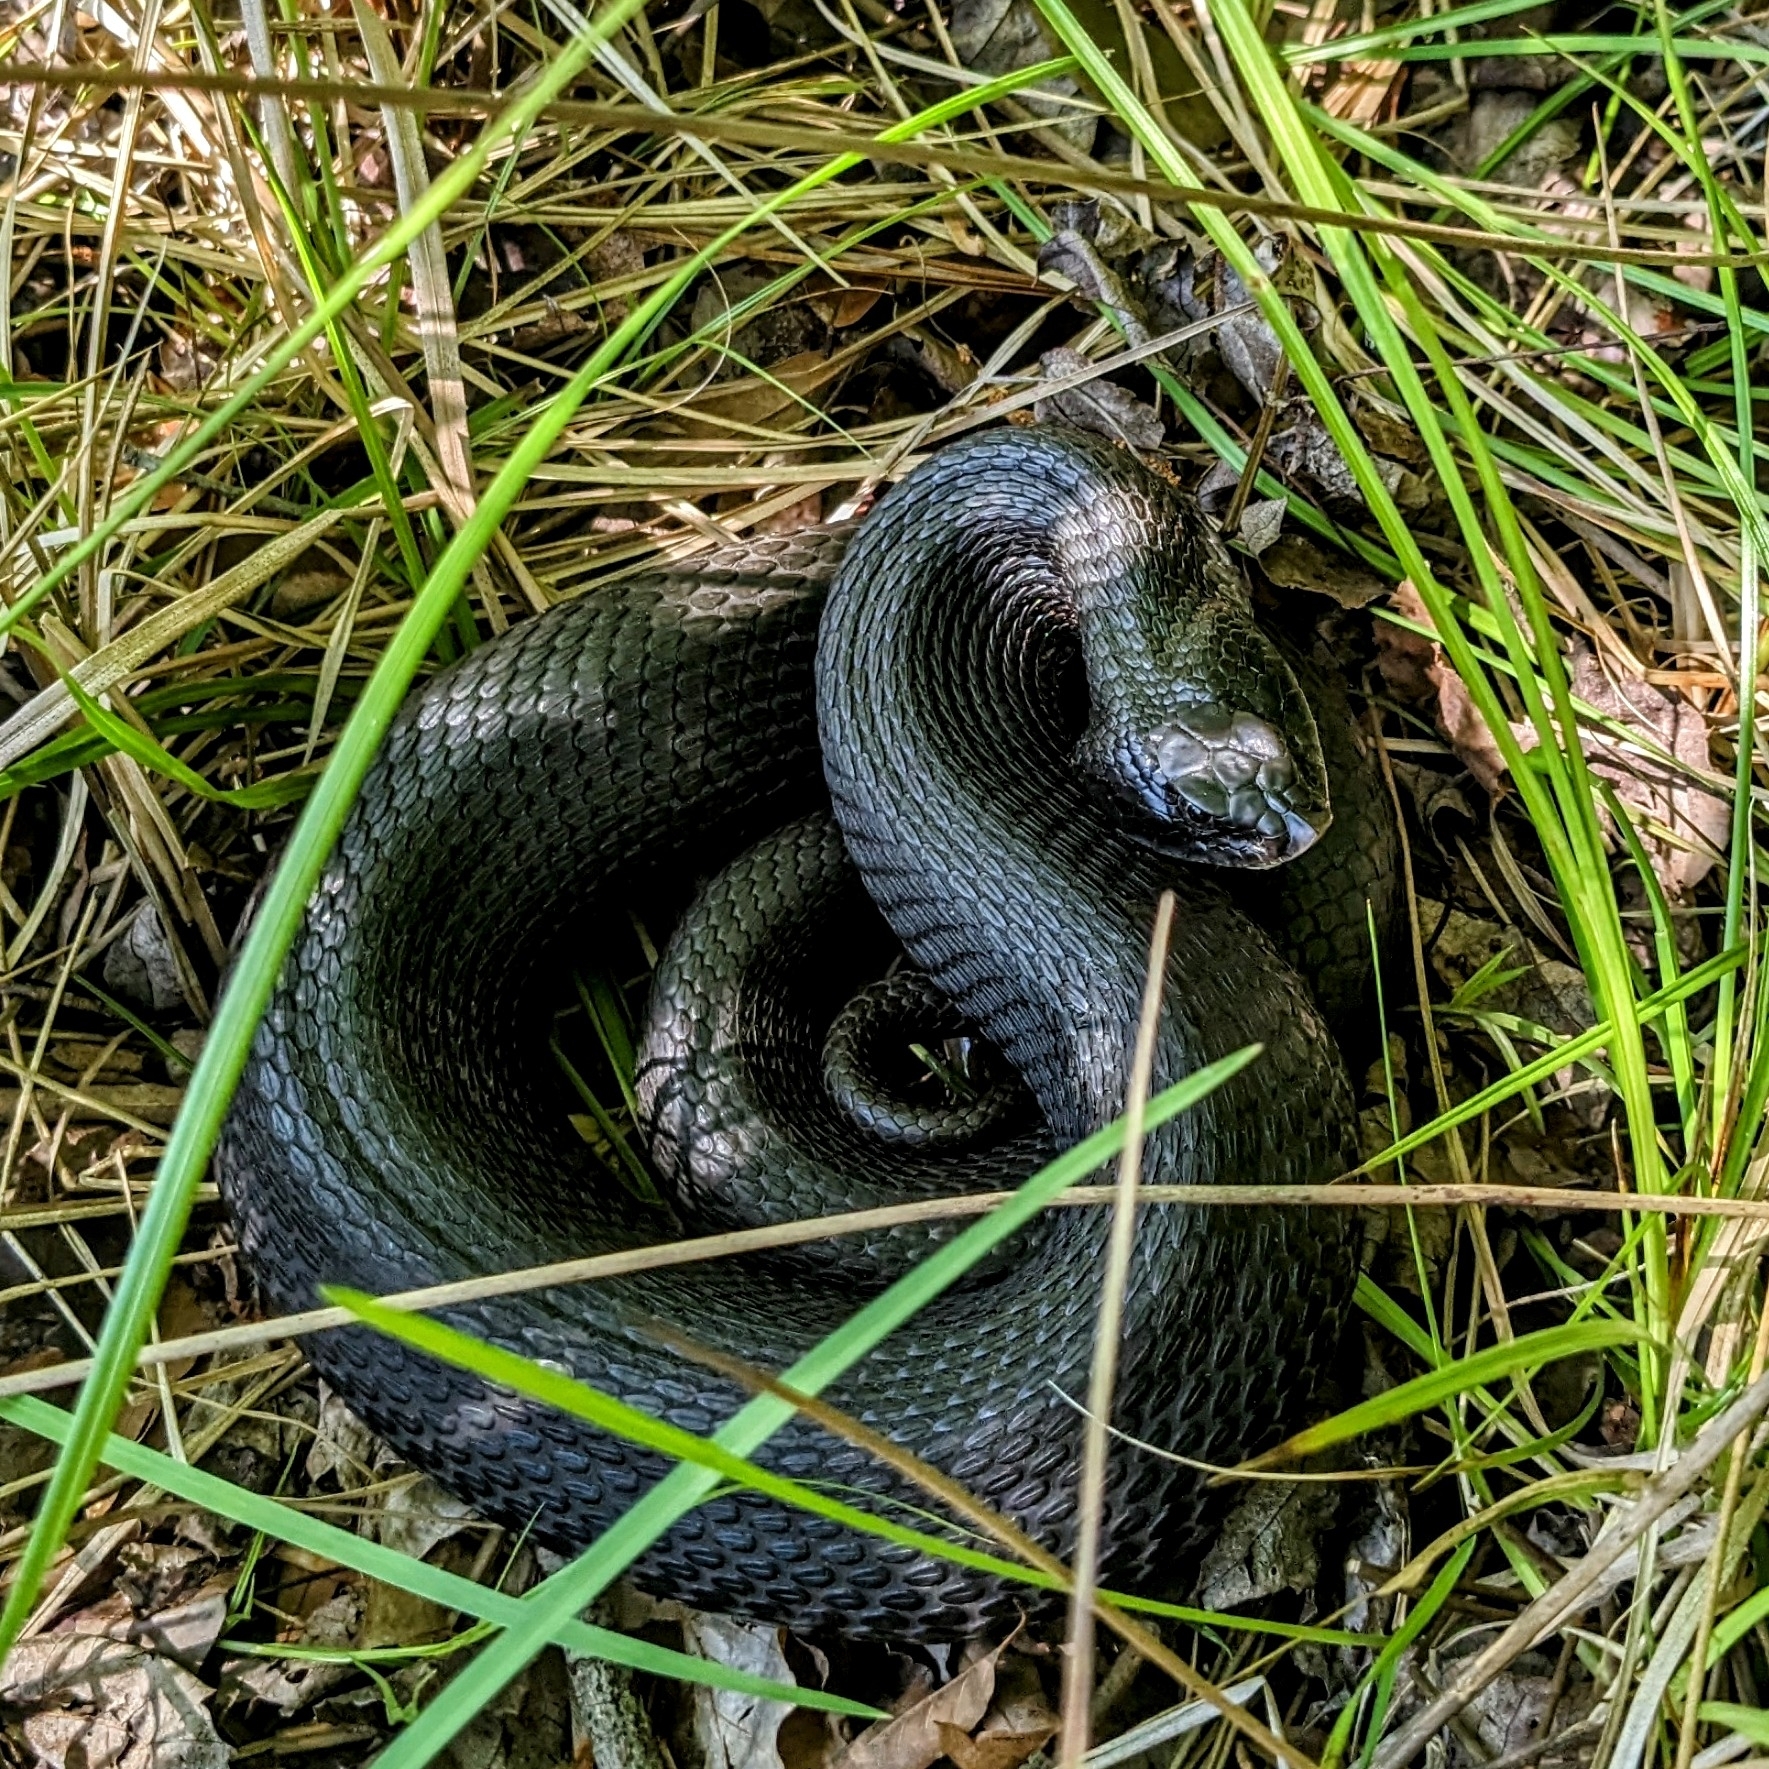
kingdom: Animalia
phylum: Chordata
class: Squamata
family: Colubridae
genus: Heterodon
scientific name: Heterodon platirhinos
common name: Eastern hognose snake
